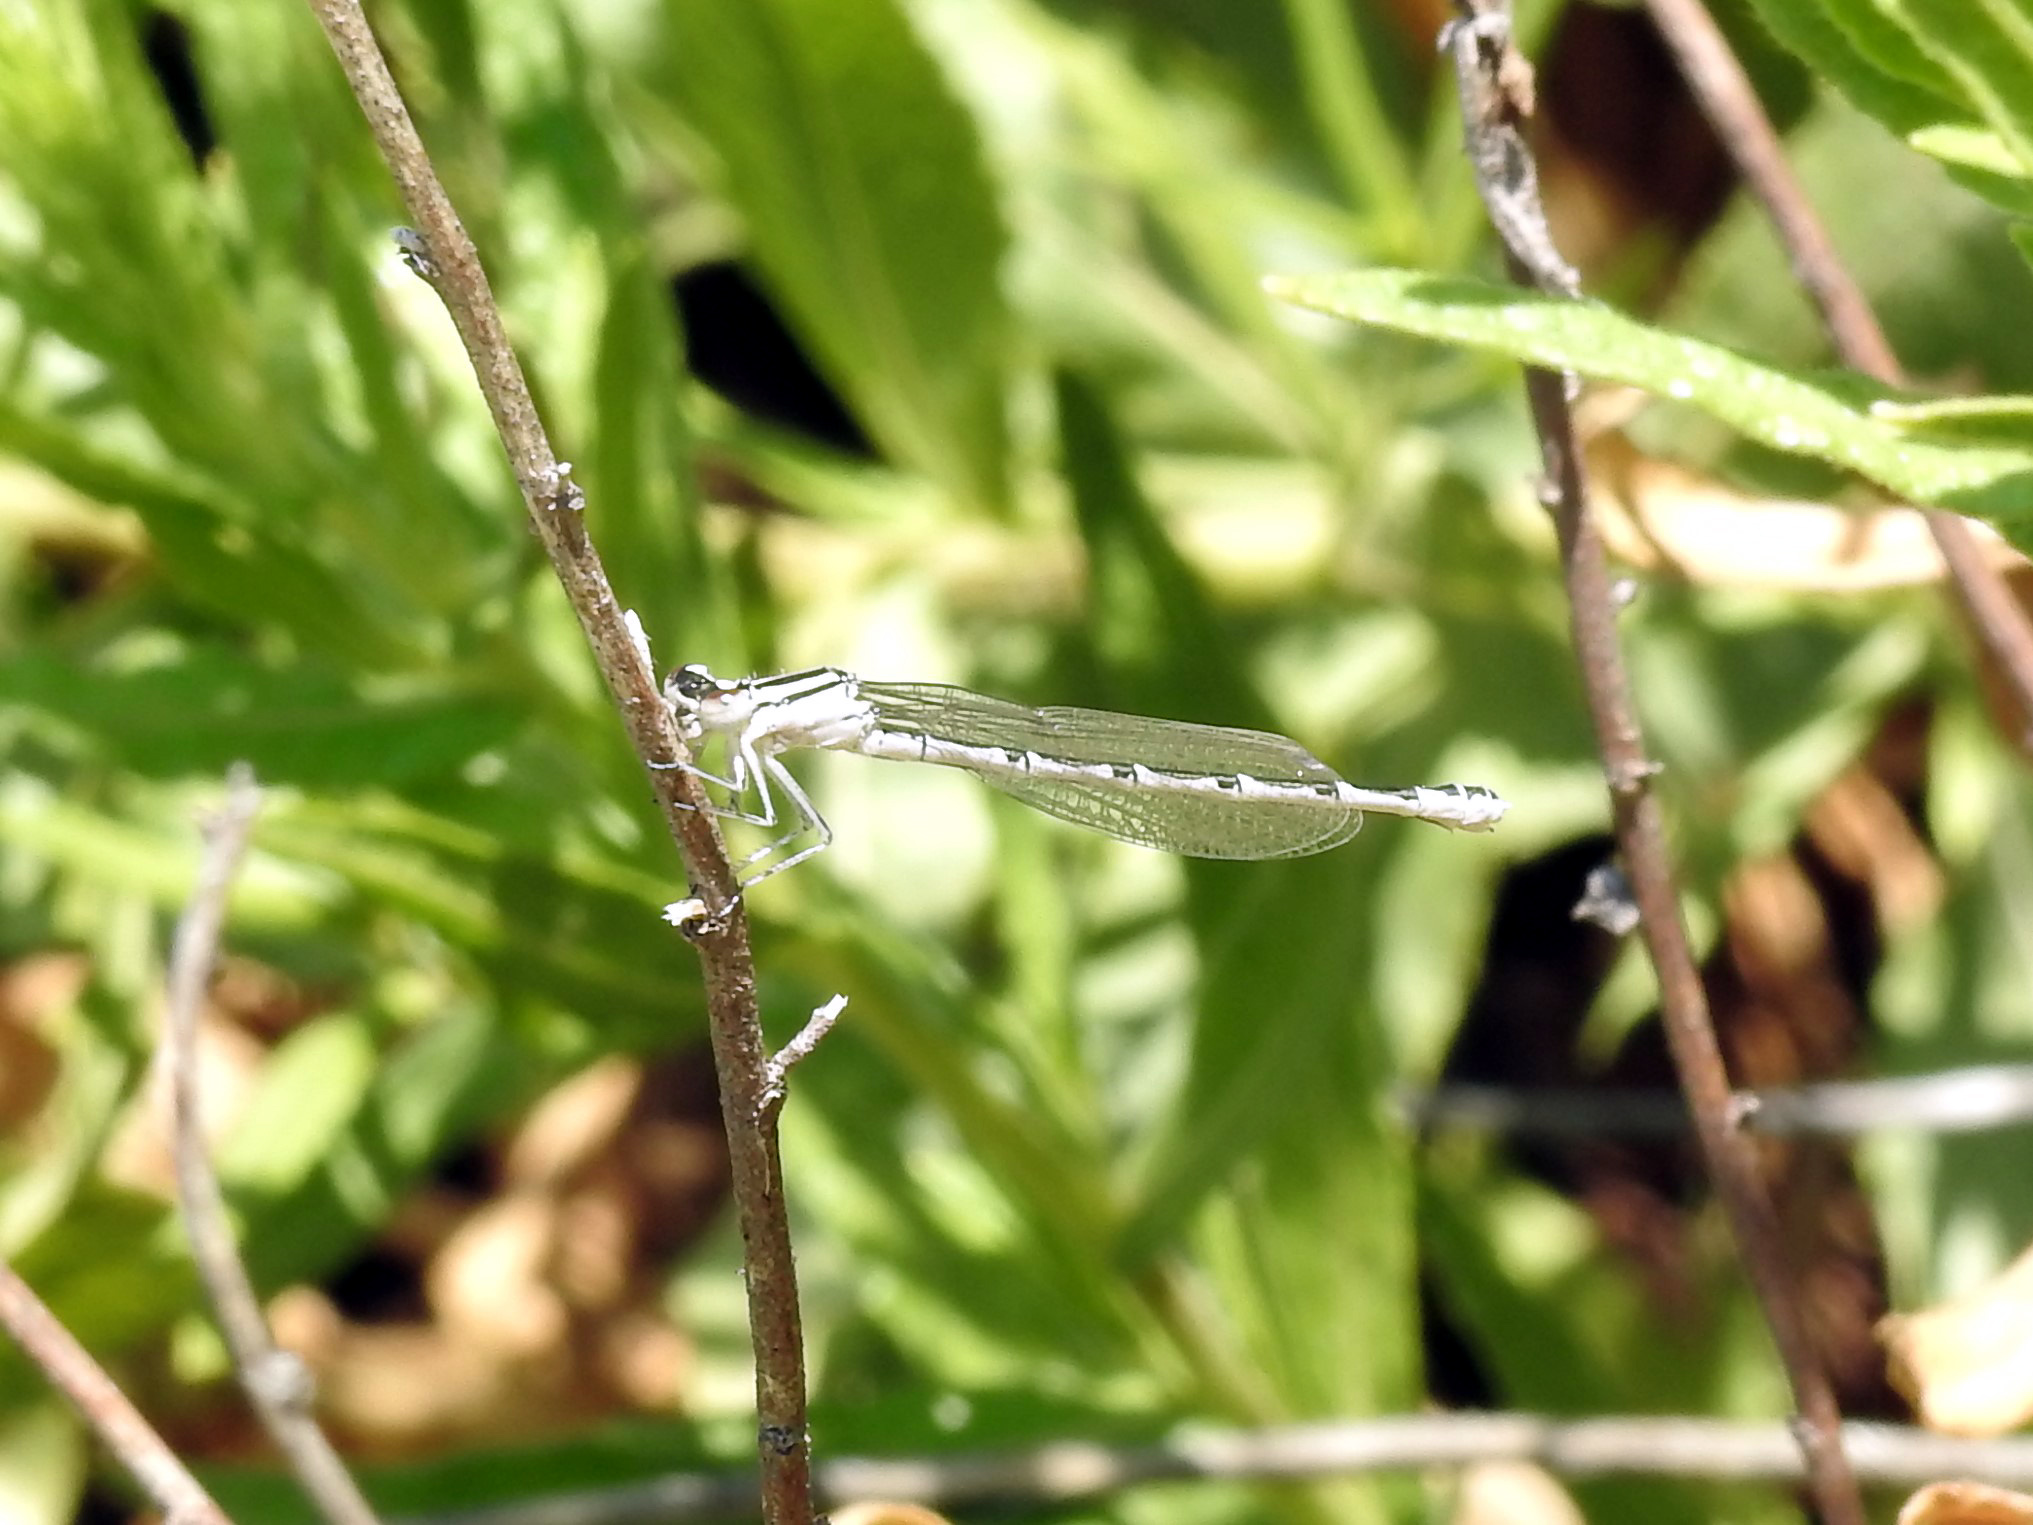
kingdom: Animalia
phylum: Arthropoda
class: Insecta
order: Odonata
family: Coenagrionidae
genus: Enallagma
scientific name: Enallagma cyathigerum
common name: Common blue damselfly
